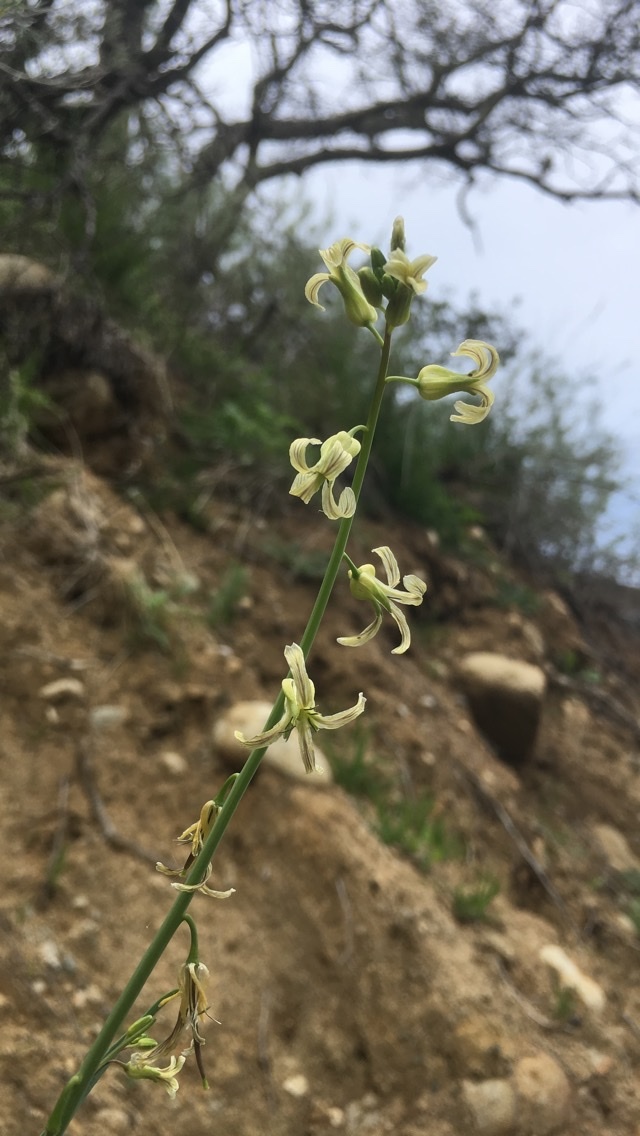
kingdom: Plantae
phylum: Tracheophyta
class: Magnoliopsida
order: Brassicales
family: Brassicaceae
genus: Streptanthus
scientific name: Streptanthus heterophyllus
